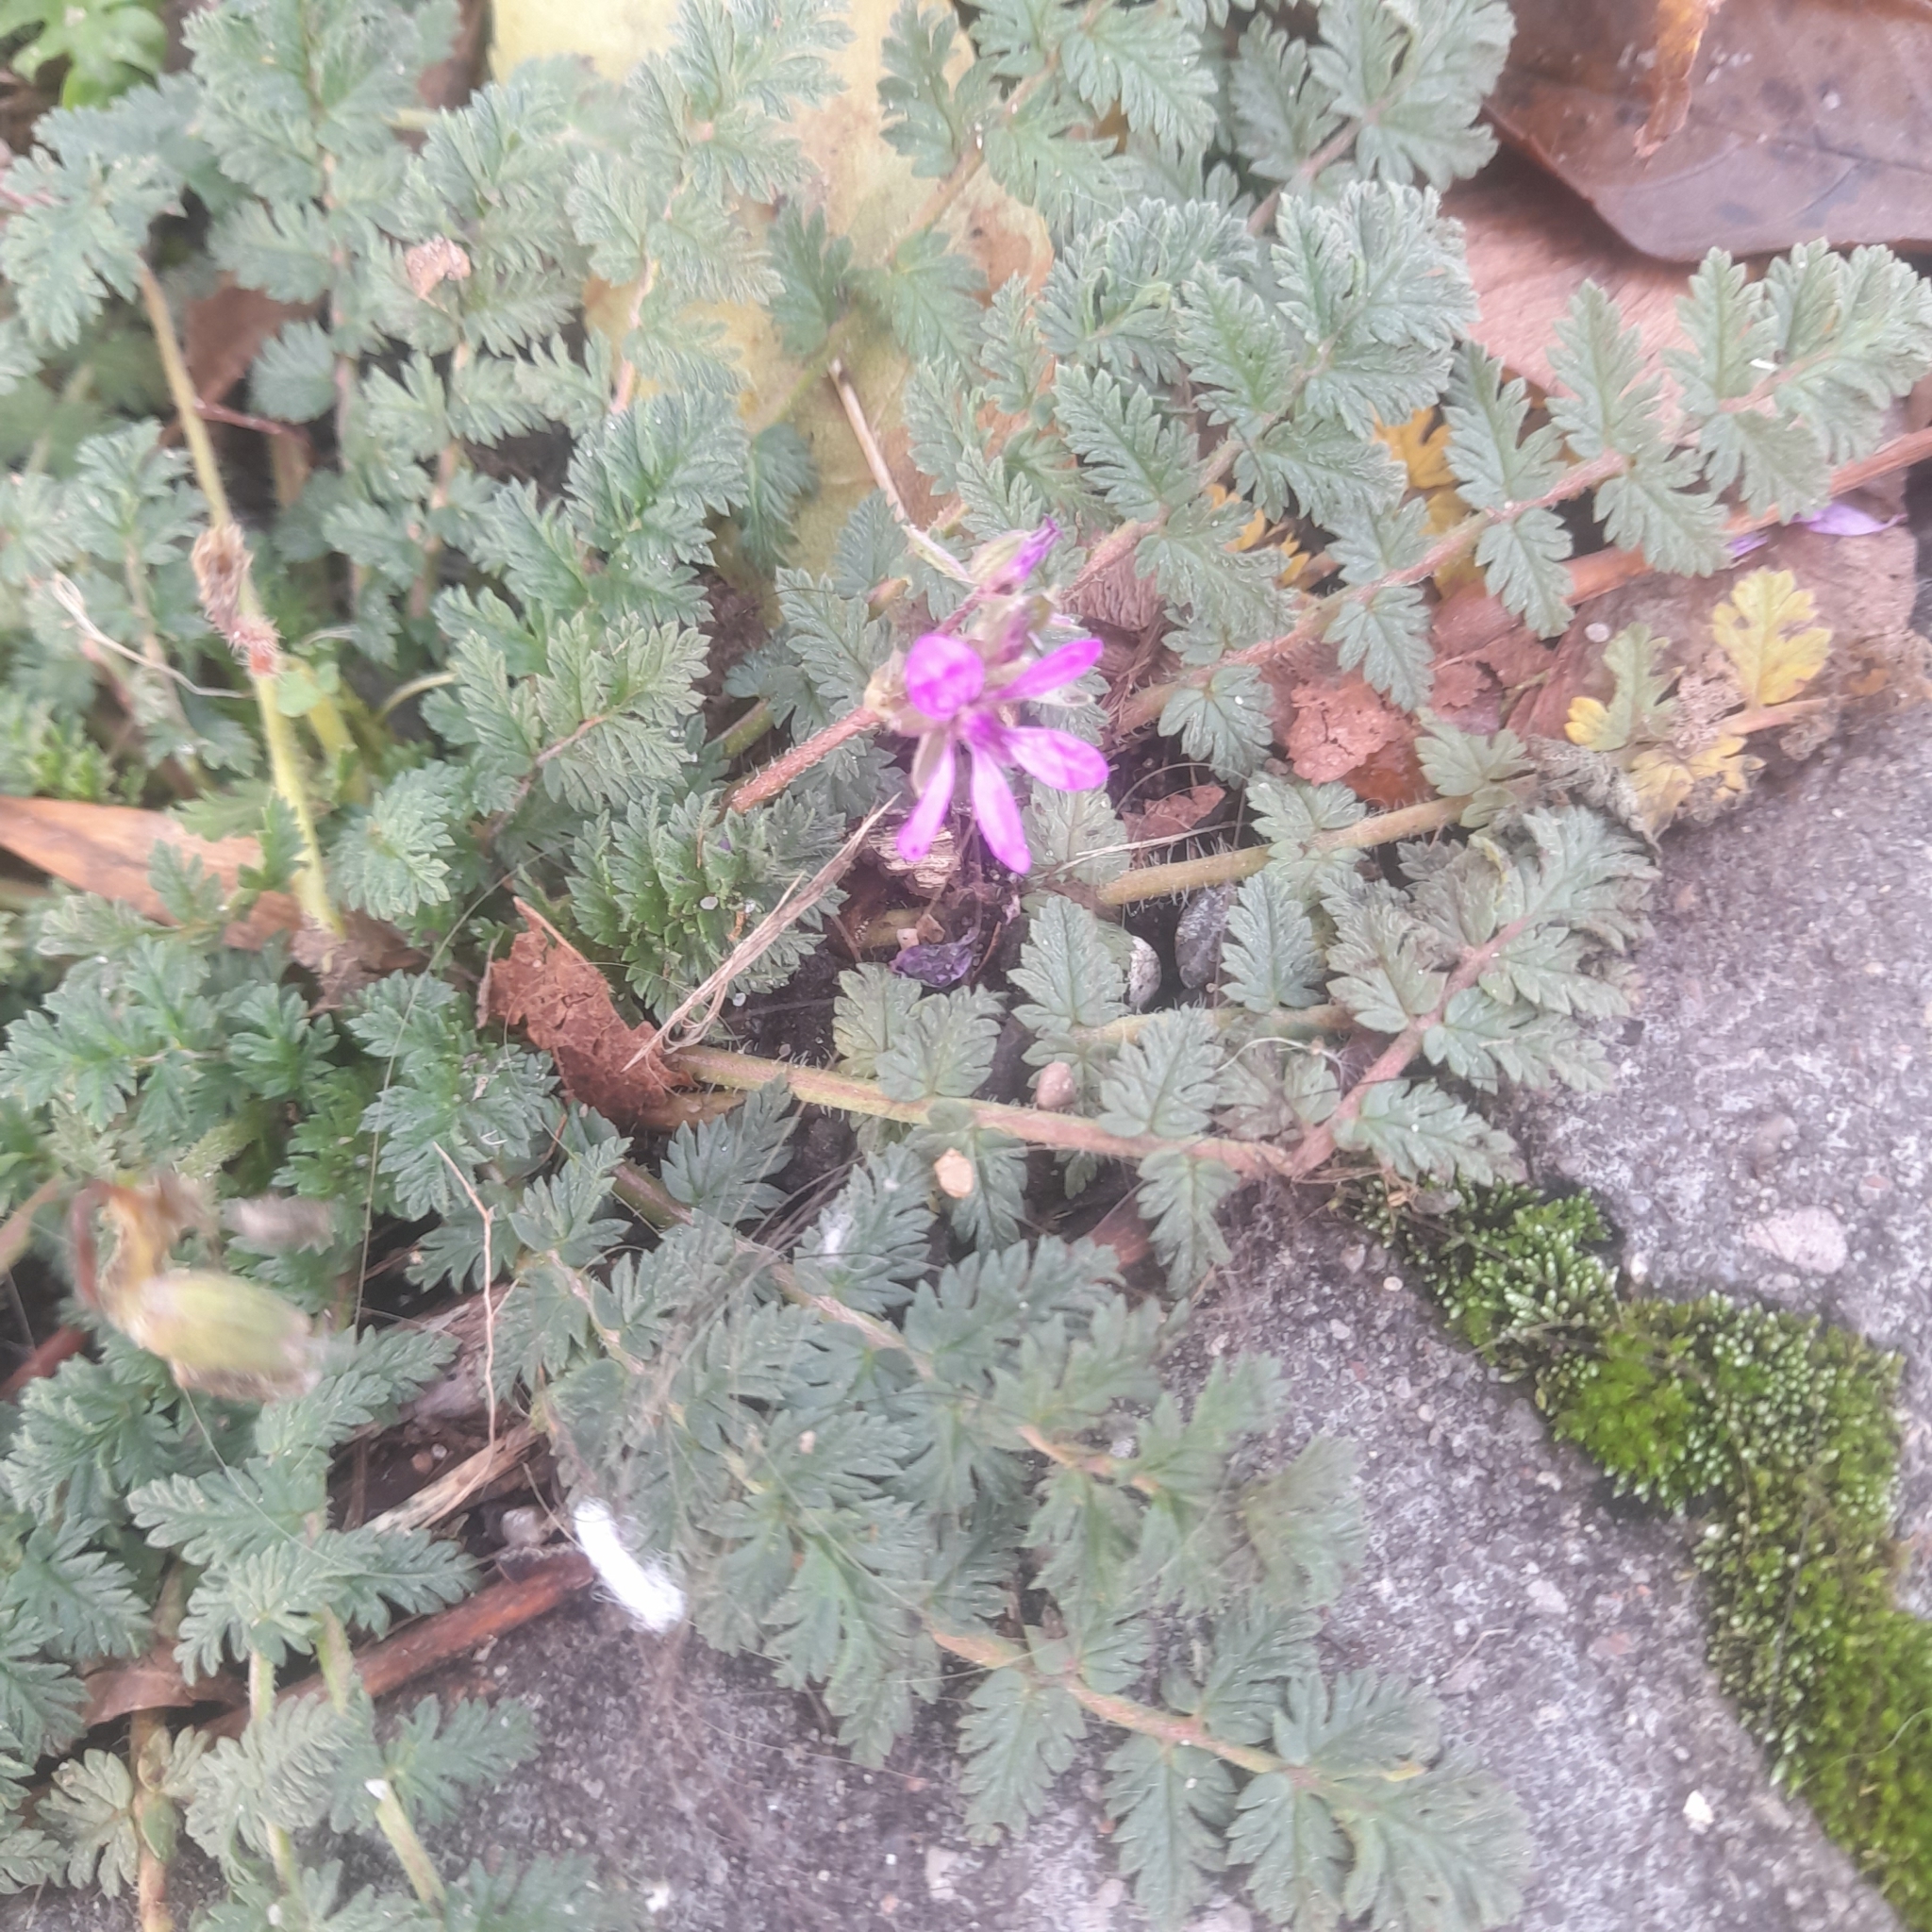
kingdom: Plantae
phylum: Tracheophyta
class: Magnoliopsida
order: Geraniales
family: Geraniaceae
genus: Erodium
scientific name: Erodium cicutarium
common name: Common stork's-bill
